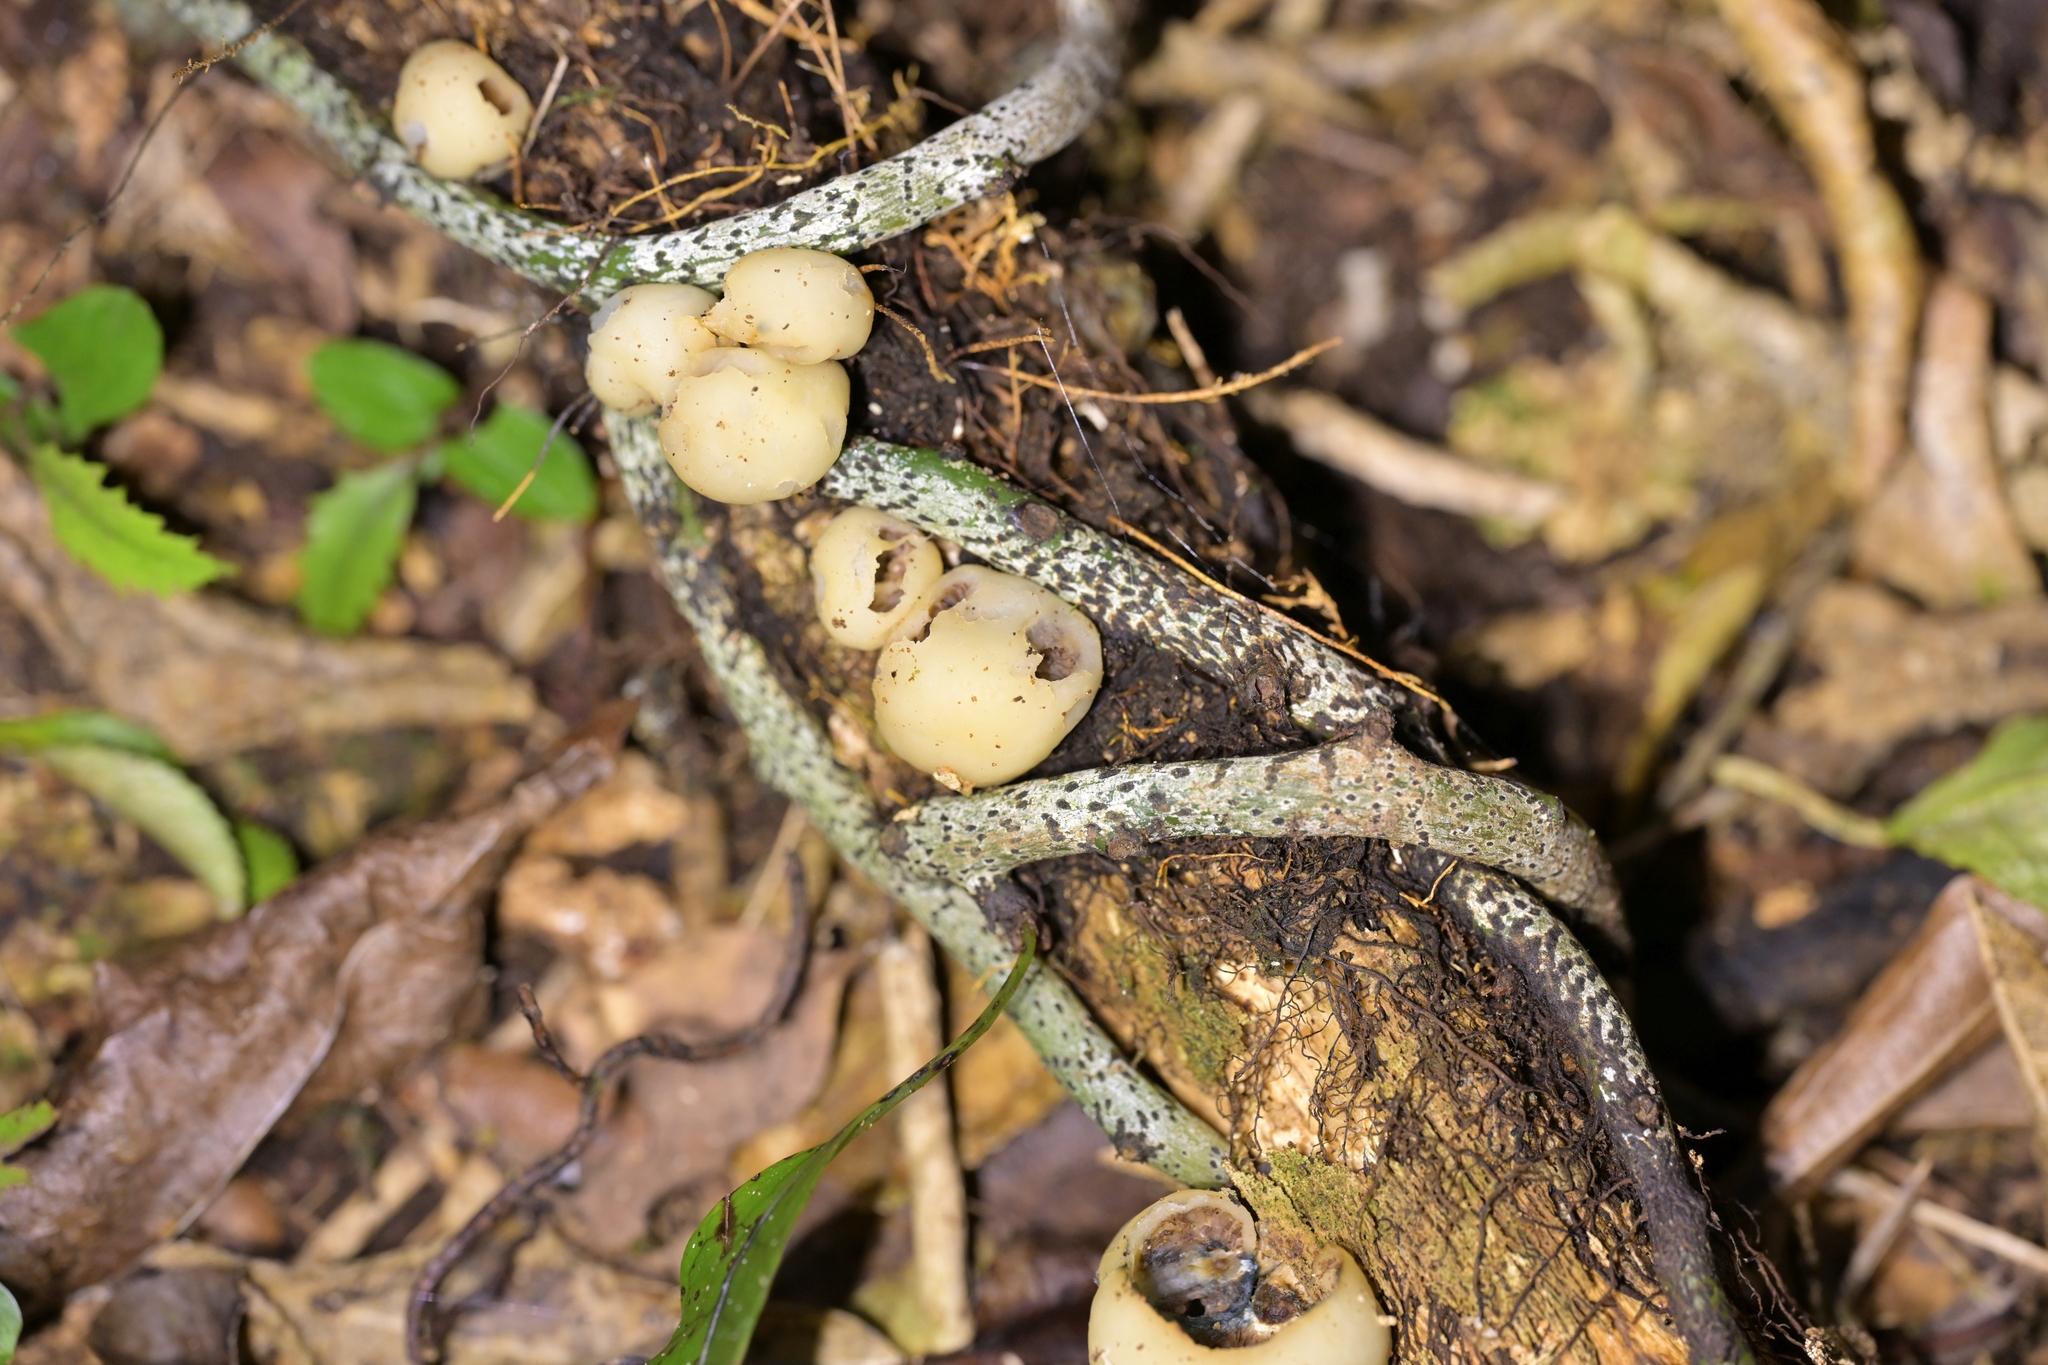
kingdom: Fungi
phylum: Basidiomycota
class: Agaricomycetes
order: Agaricales
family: Hymenogastraceae
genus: Psilocybe
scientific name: Psilocybe weraroa
